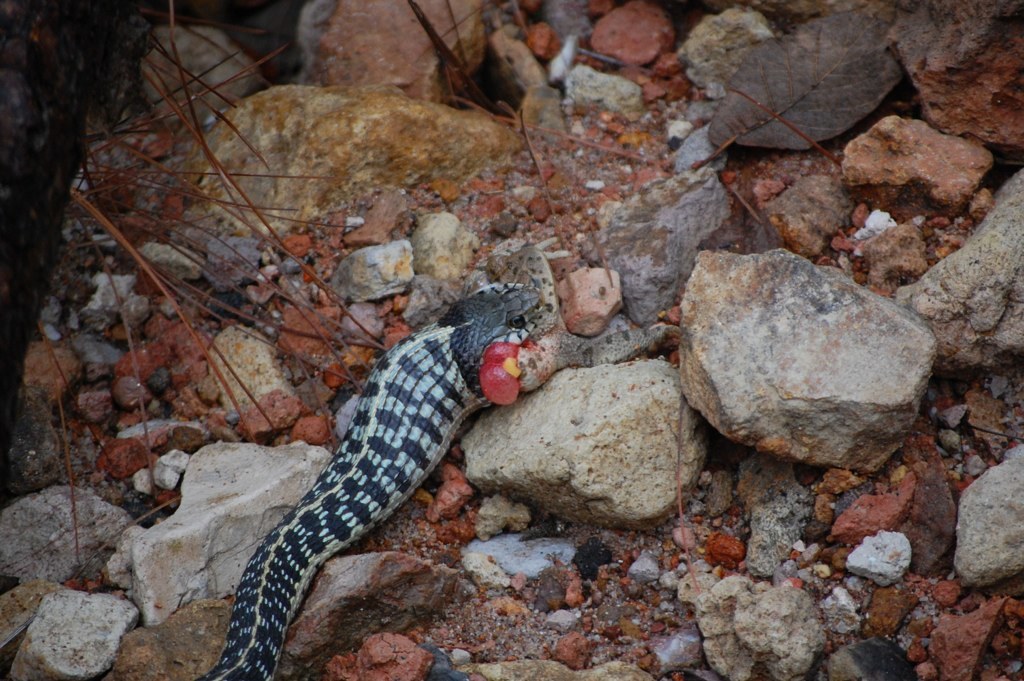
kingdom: Animalia
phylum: Chordata
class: Squamata
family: Colubridae
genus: Thamnophis
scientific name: Thamnophis cyrtopsis
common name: Black-necked gartersnake
